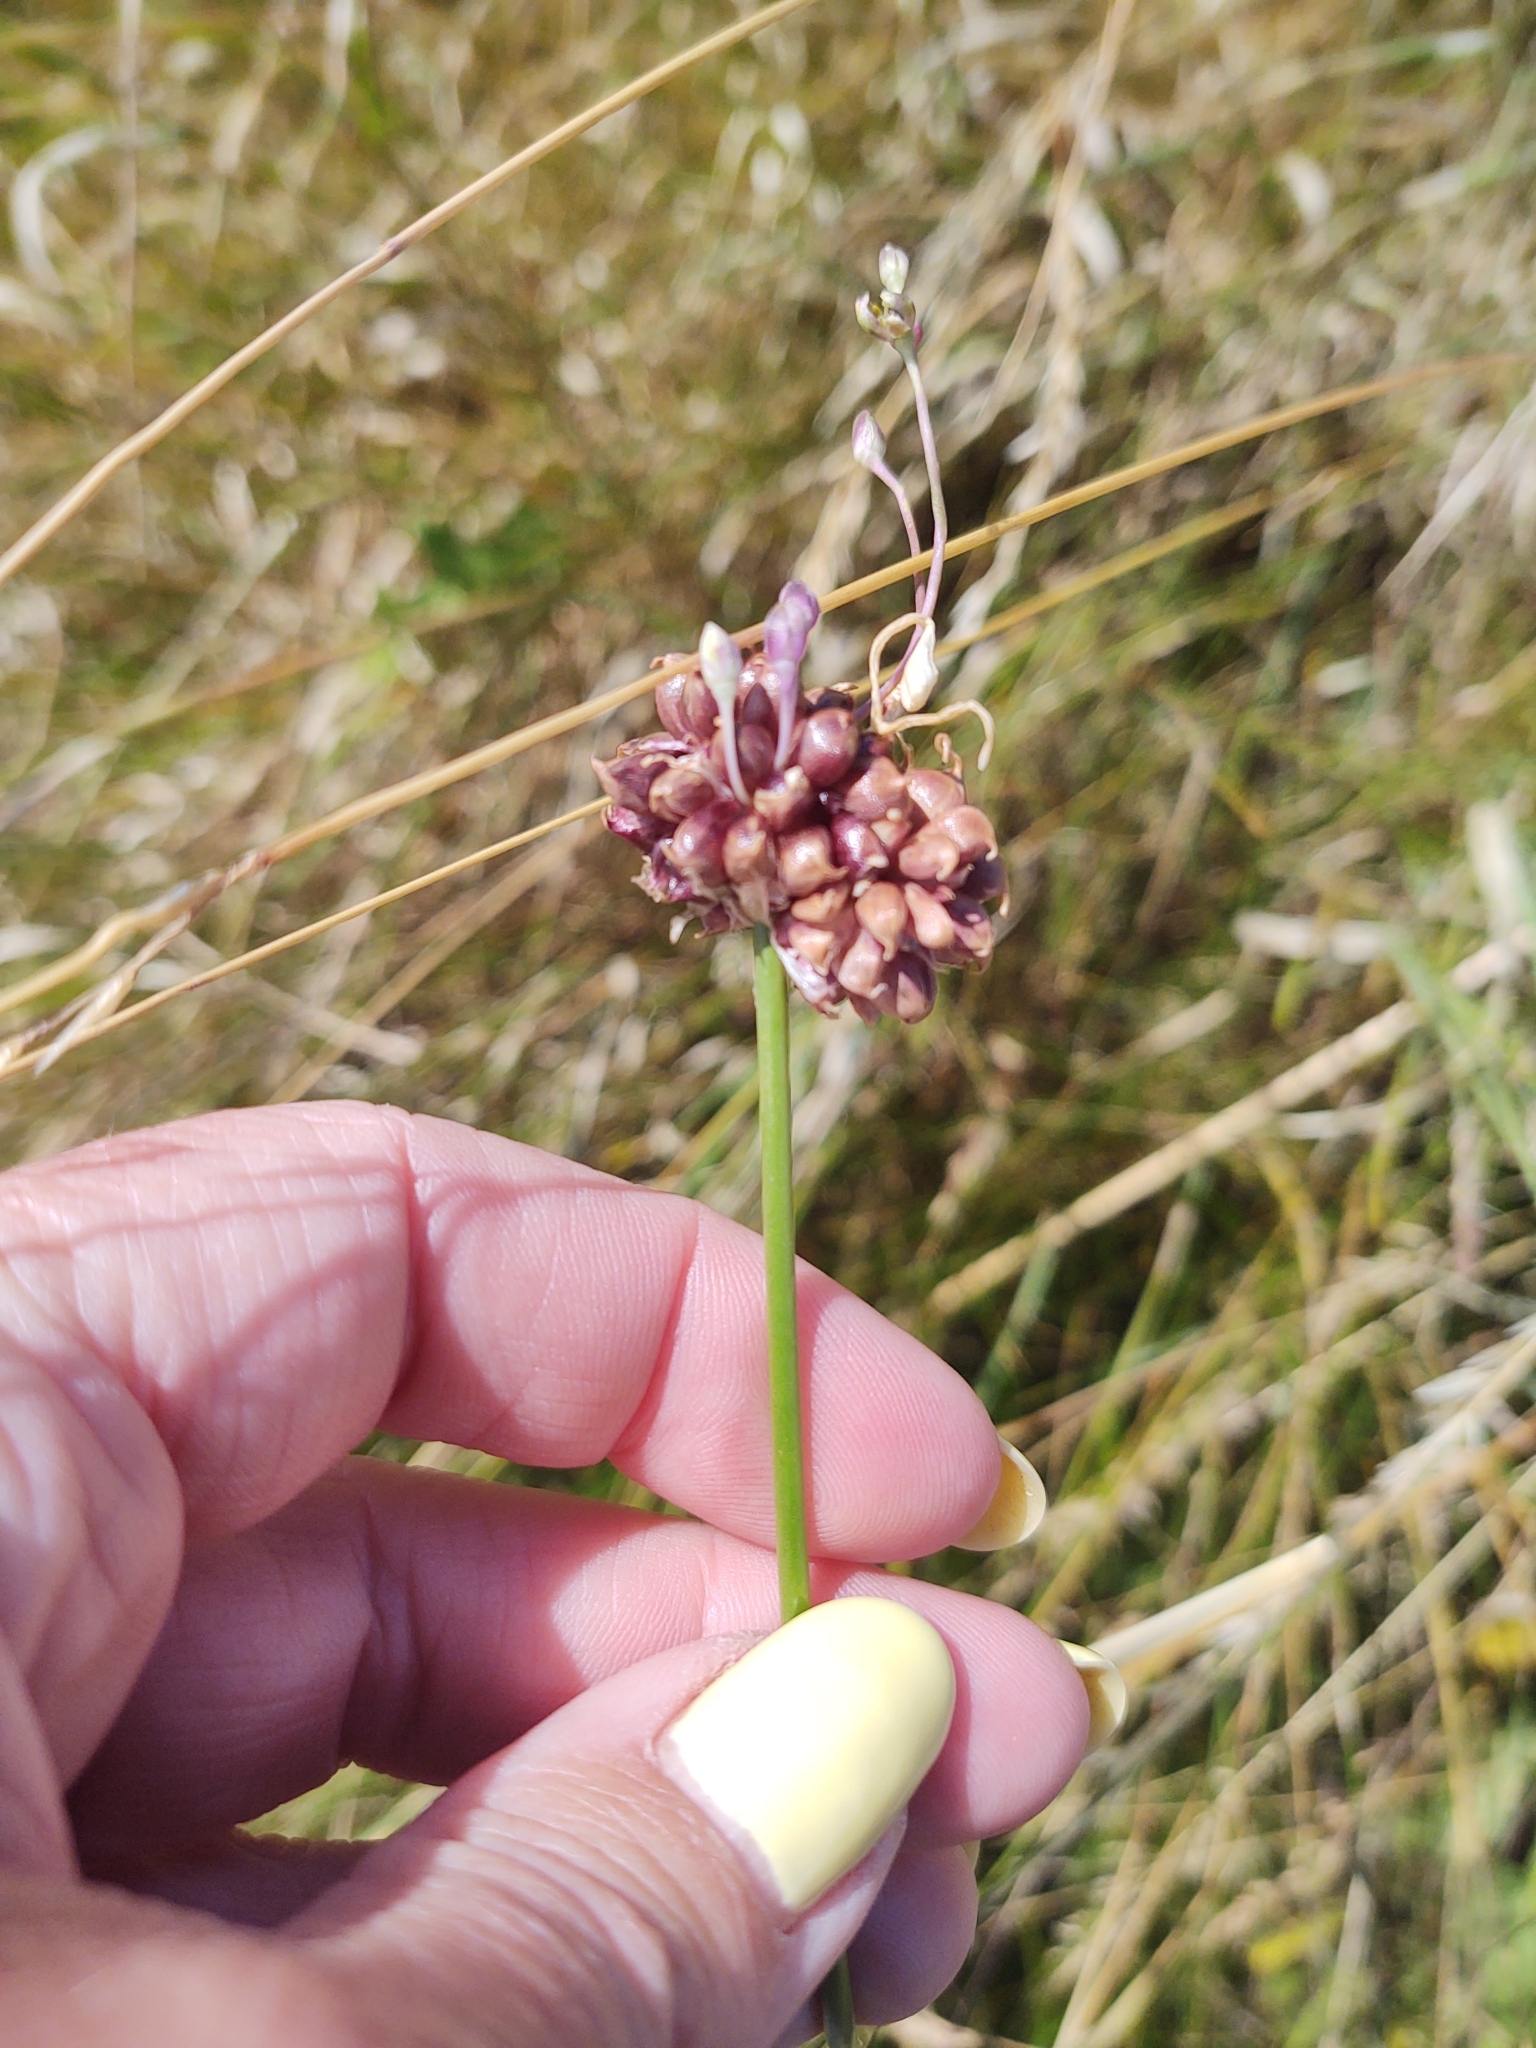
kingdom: Plantae
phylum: Tracheophyta
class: Liliopsida
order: Asparagales
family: Amaryllidaceae
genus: Allium
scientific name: Allium vineale
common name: Crow garlic
